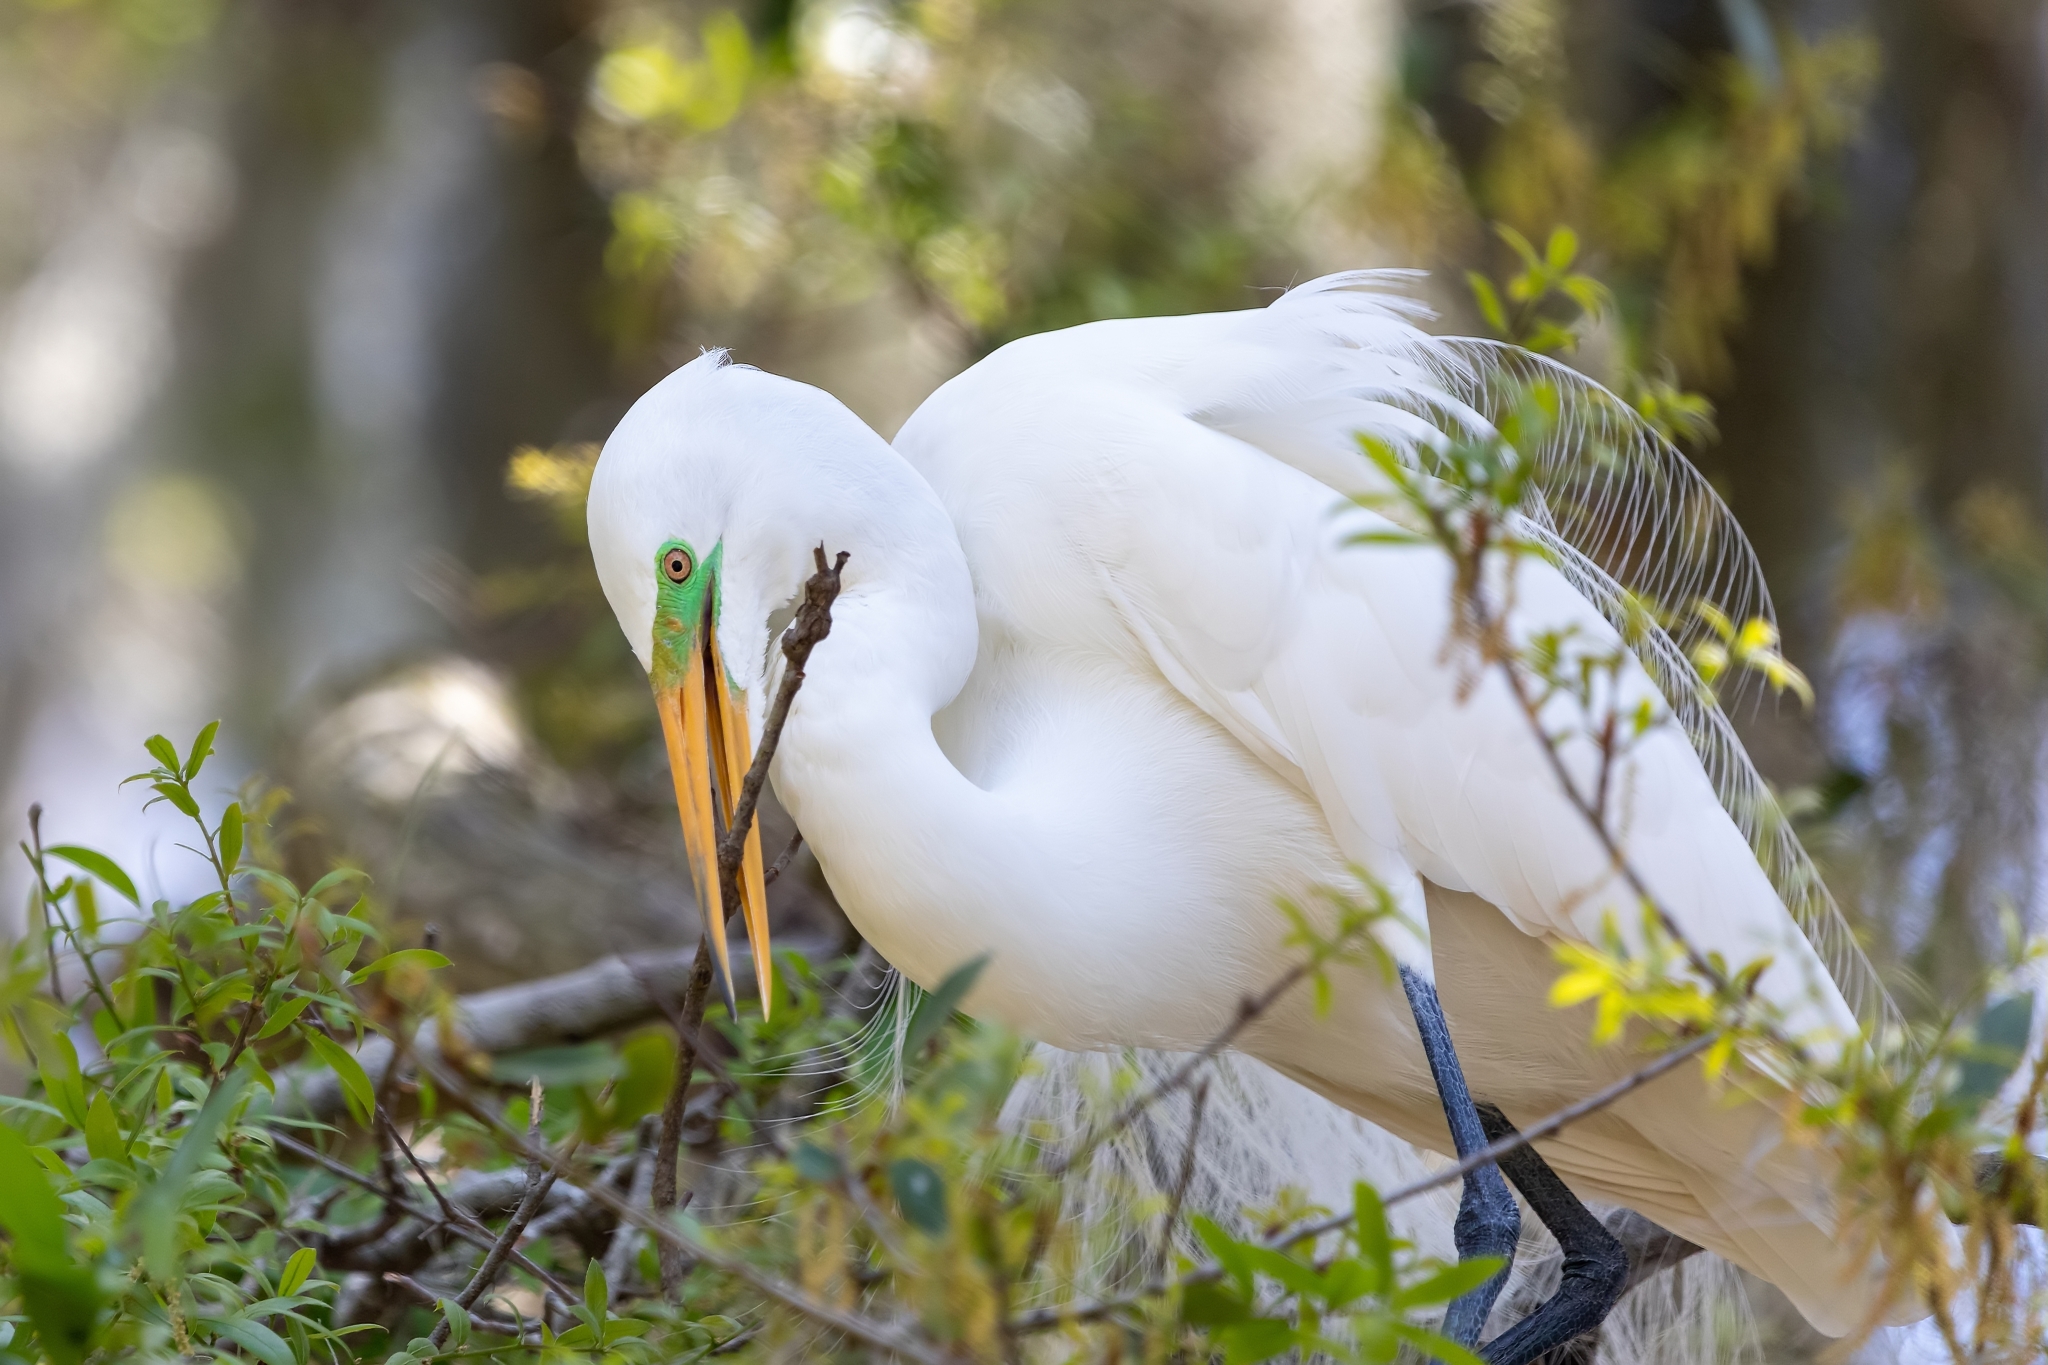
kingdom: Animalia
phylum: Chordata
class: Aves
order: Pelecaniformes
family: Ardeidae
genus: Ardea
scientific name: Ardea alba
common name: Great egret
